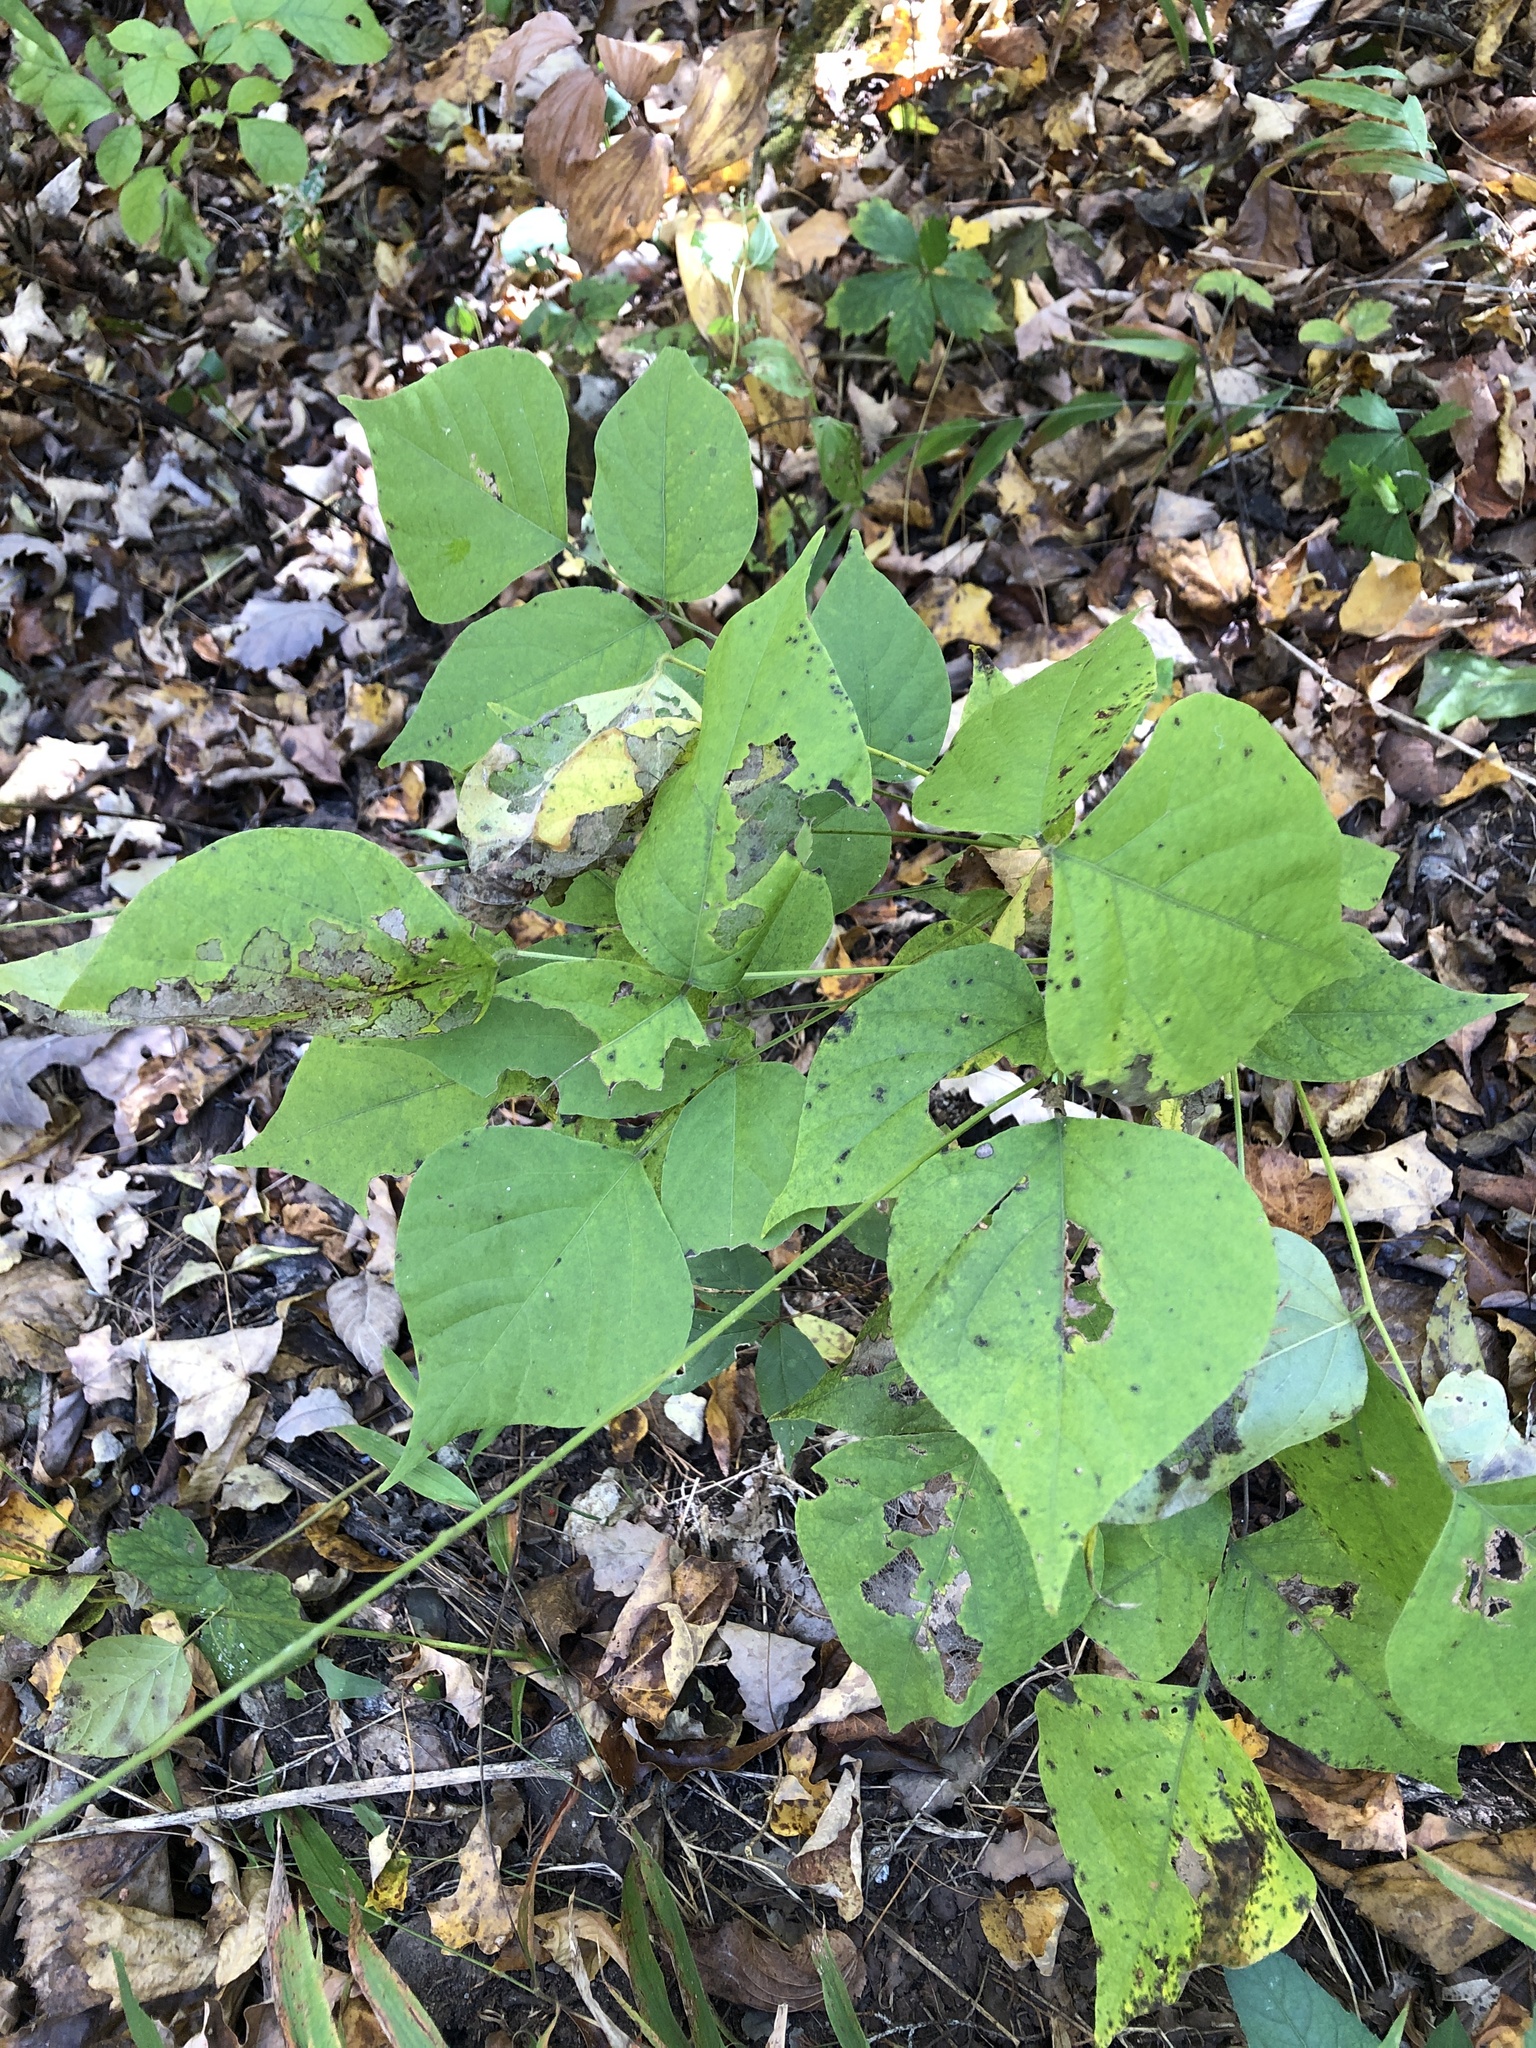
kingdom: Plantae
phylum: Tracheophyta
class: Magnoliopsida
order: Fabales
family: Fabaceae
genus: Hylodesmum
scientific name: Hylodesmum glutinosum
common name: Clustered-leaved tick-trefoil
